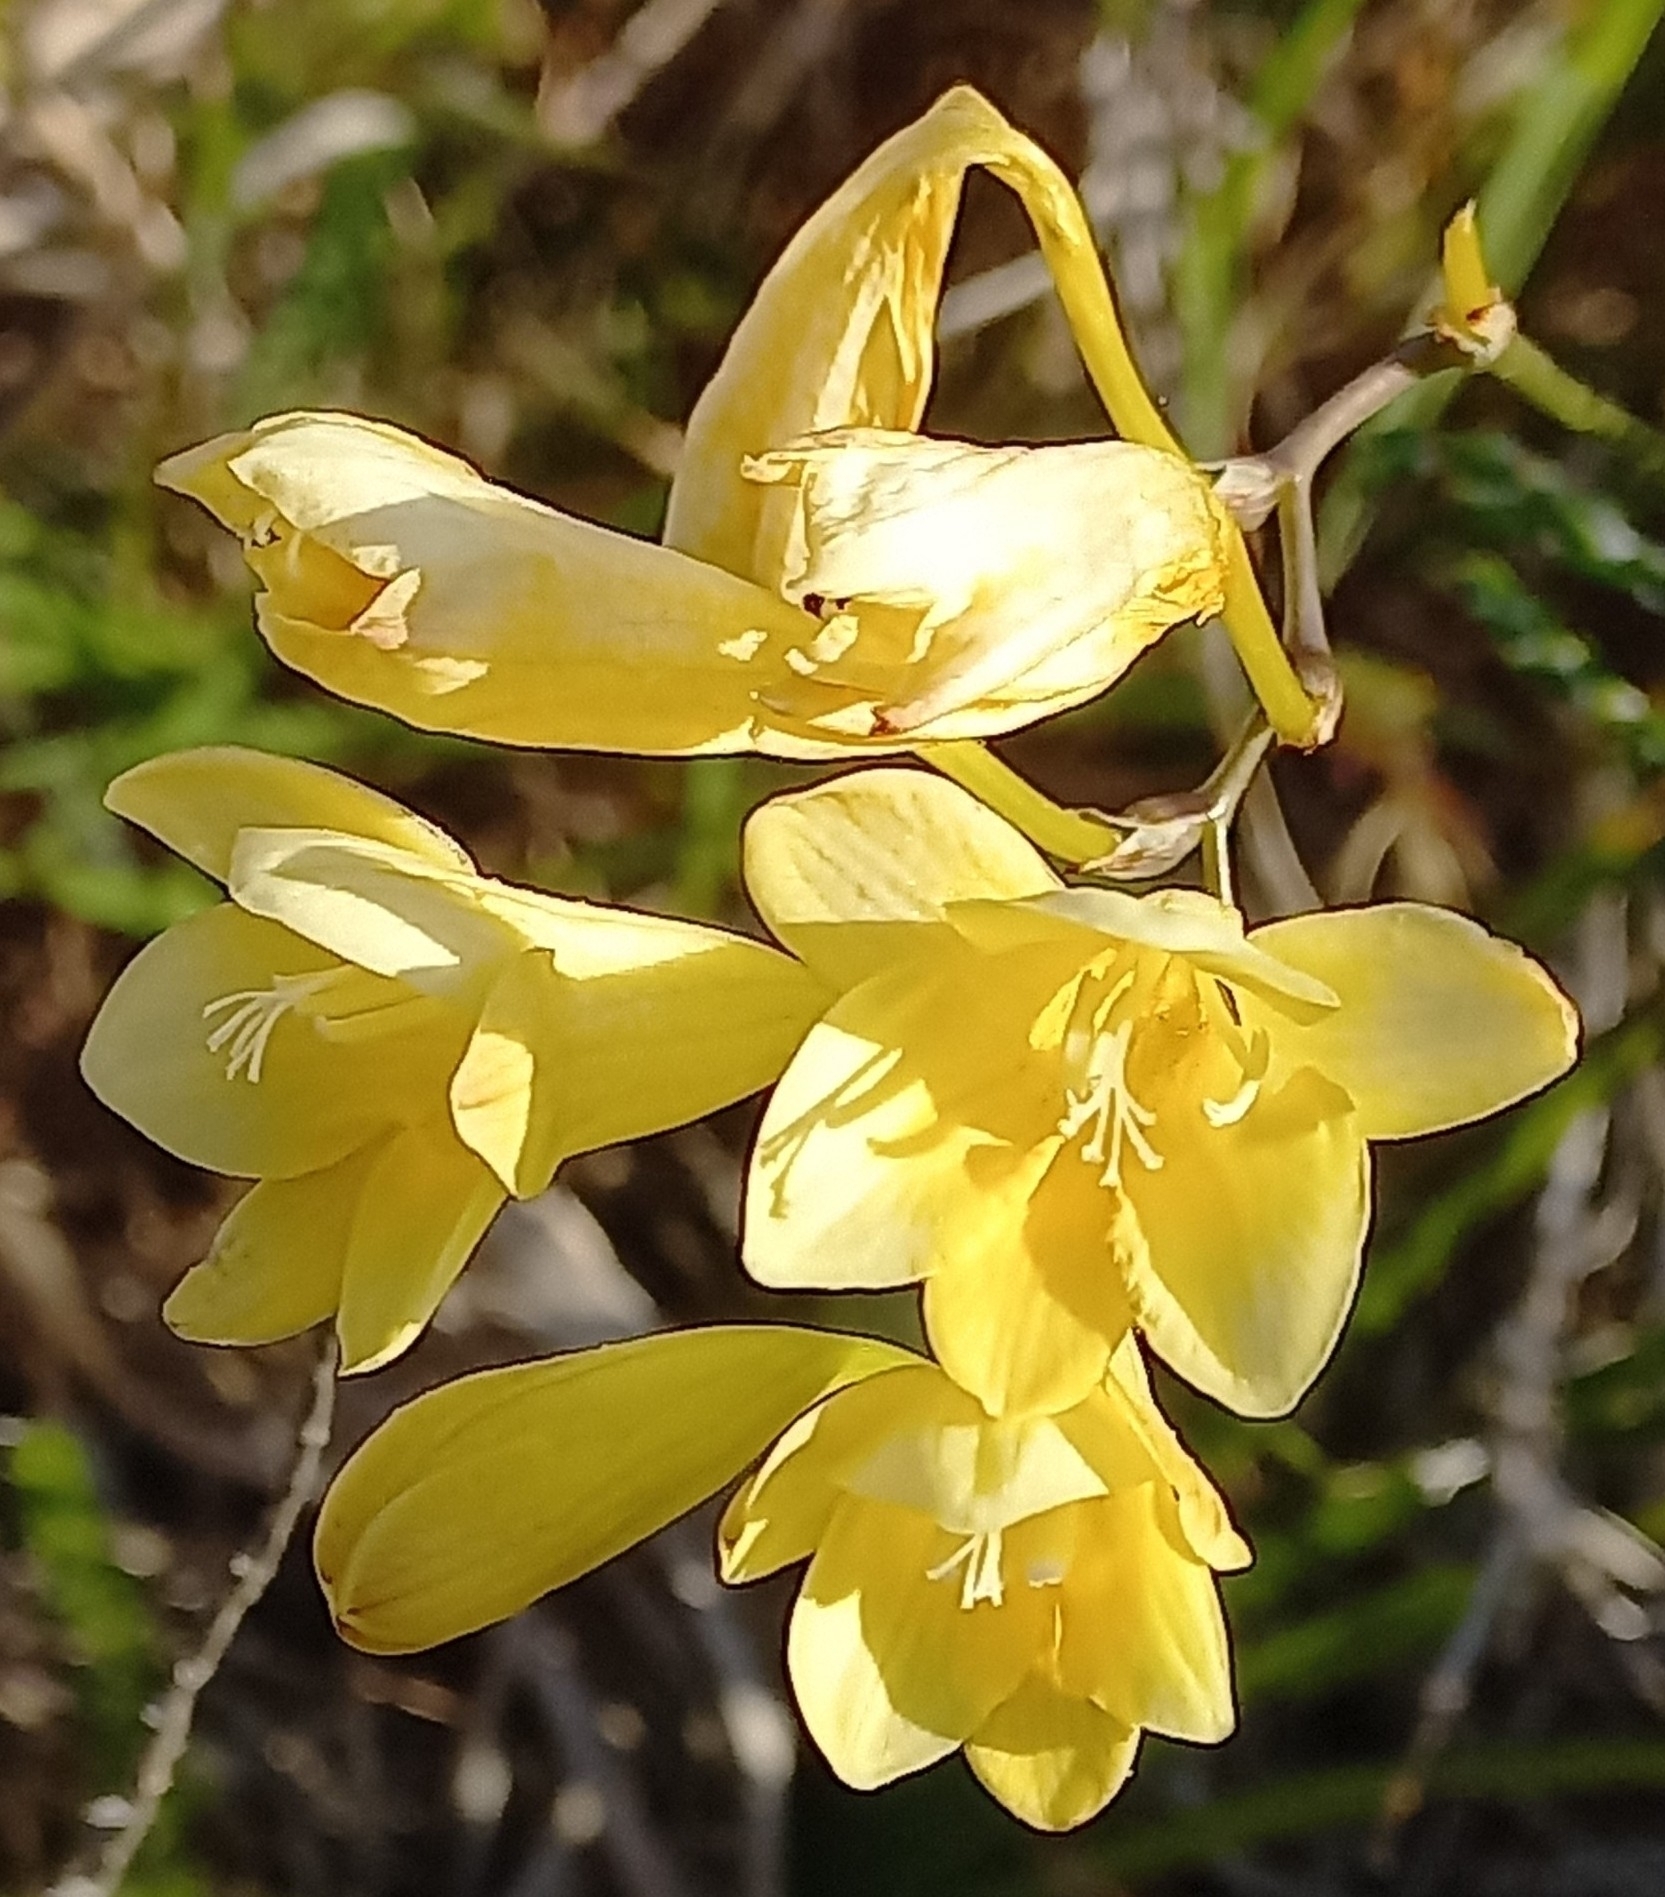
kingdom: Plantae
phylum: Tracheophyta
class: Liliopsida
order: Asparagales
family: Iridaceae
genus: Tritonia
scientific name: Tritonia gladiolaris
